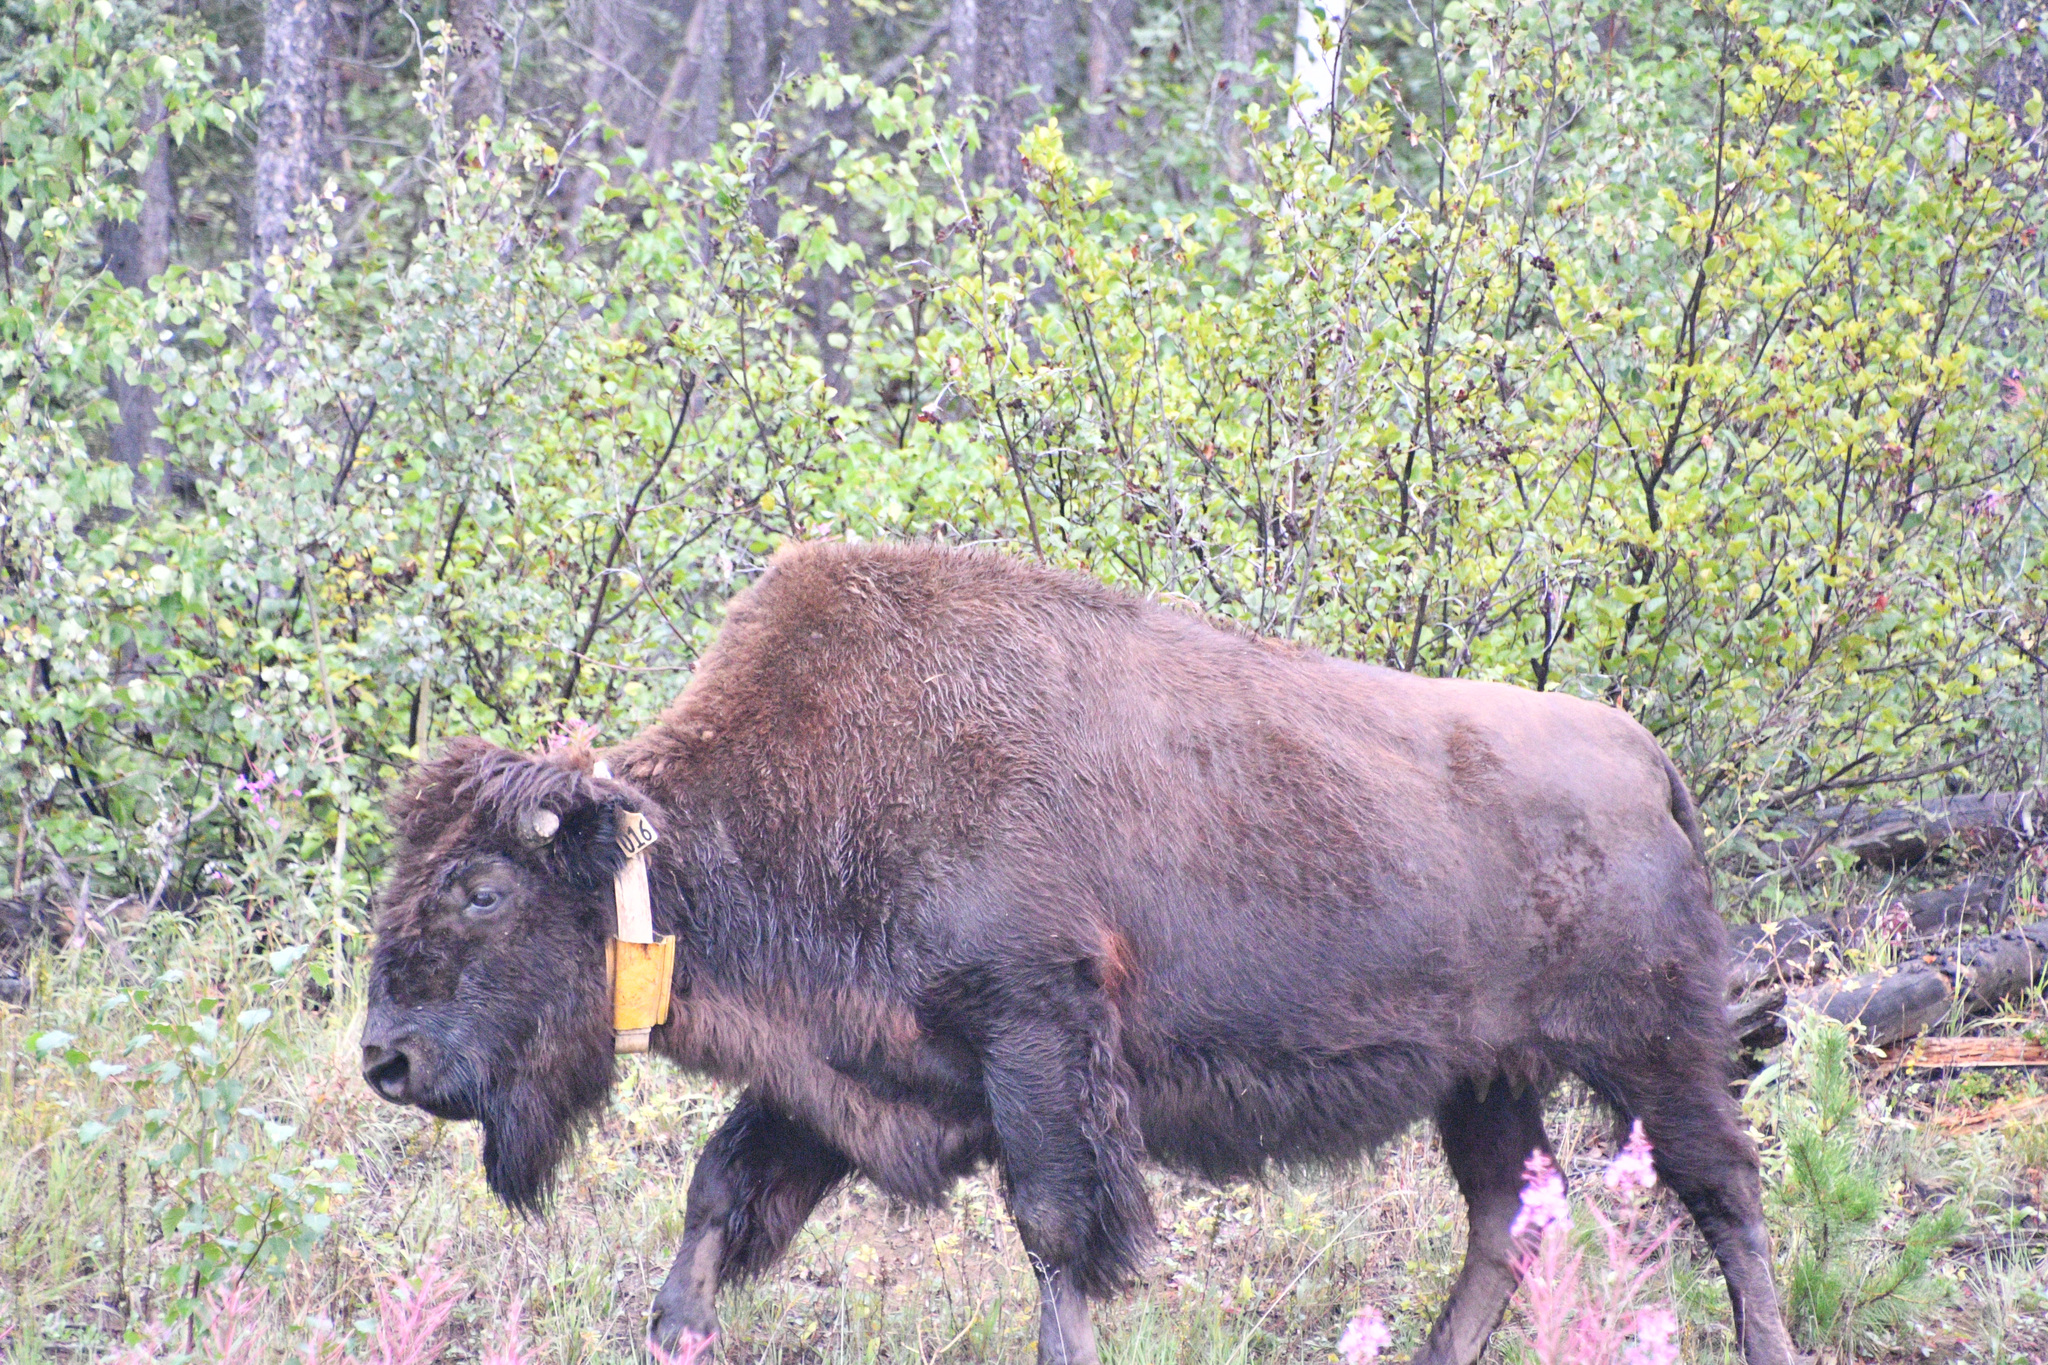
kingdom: Animalia
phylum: Chordata
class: Mammalia
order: Artiodactyla
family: Bovidae
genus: Bison
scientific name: Bison bison
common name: American bison
